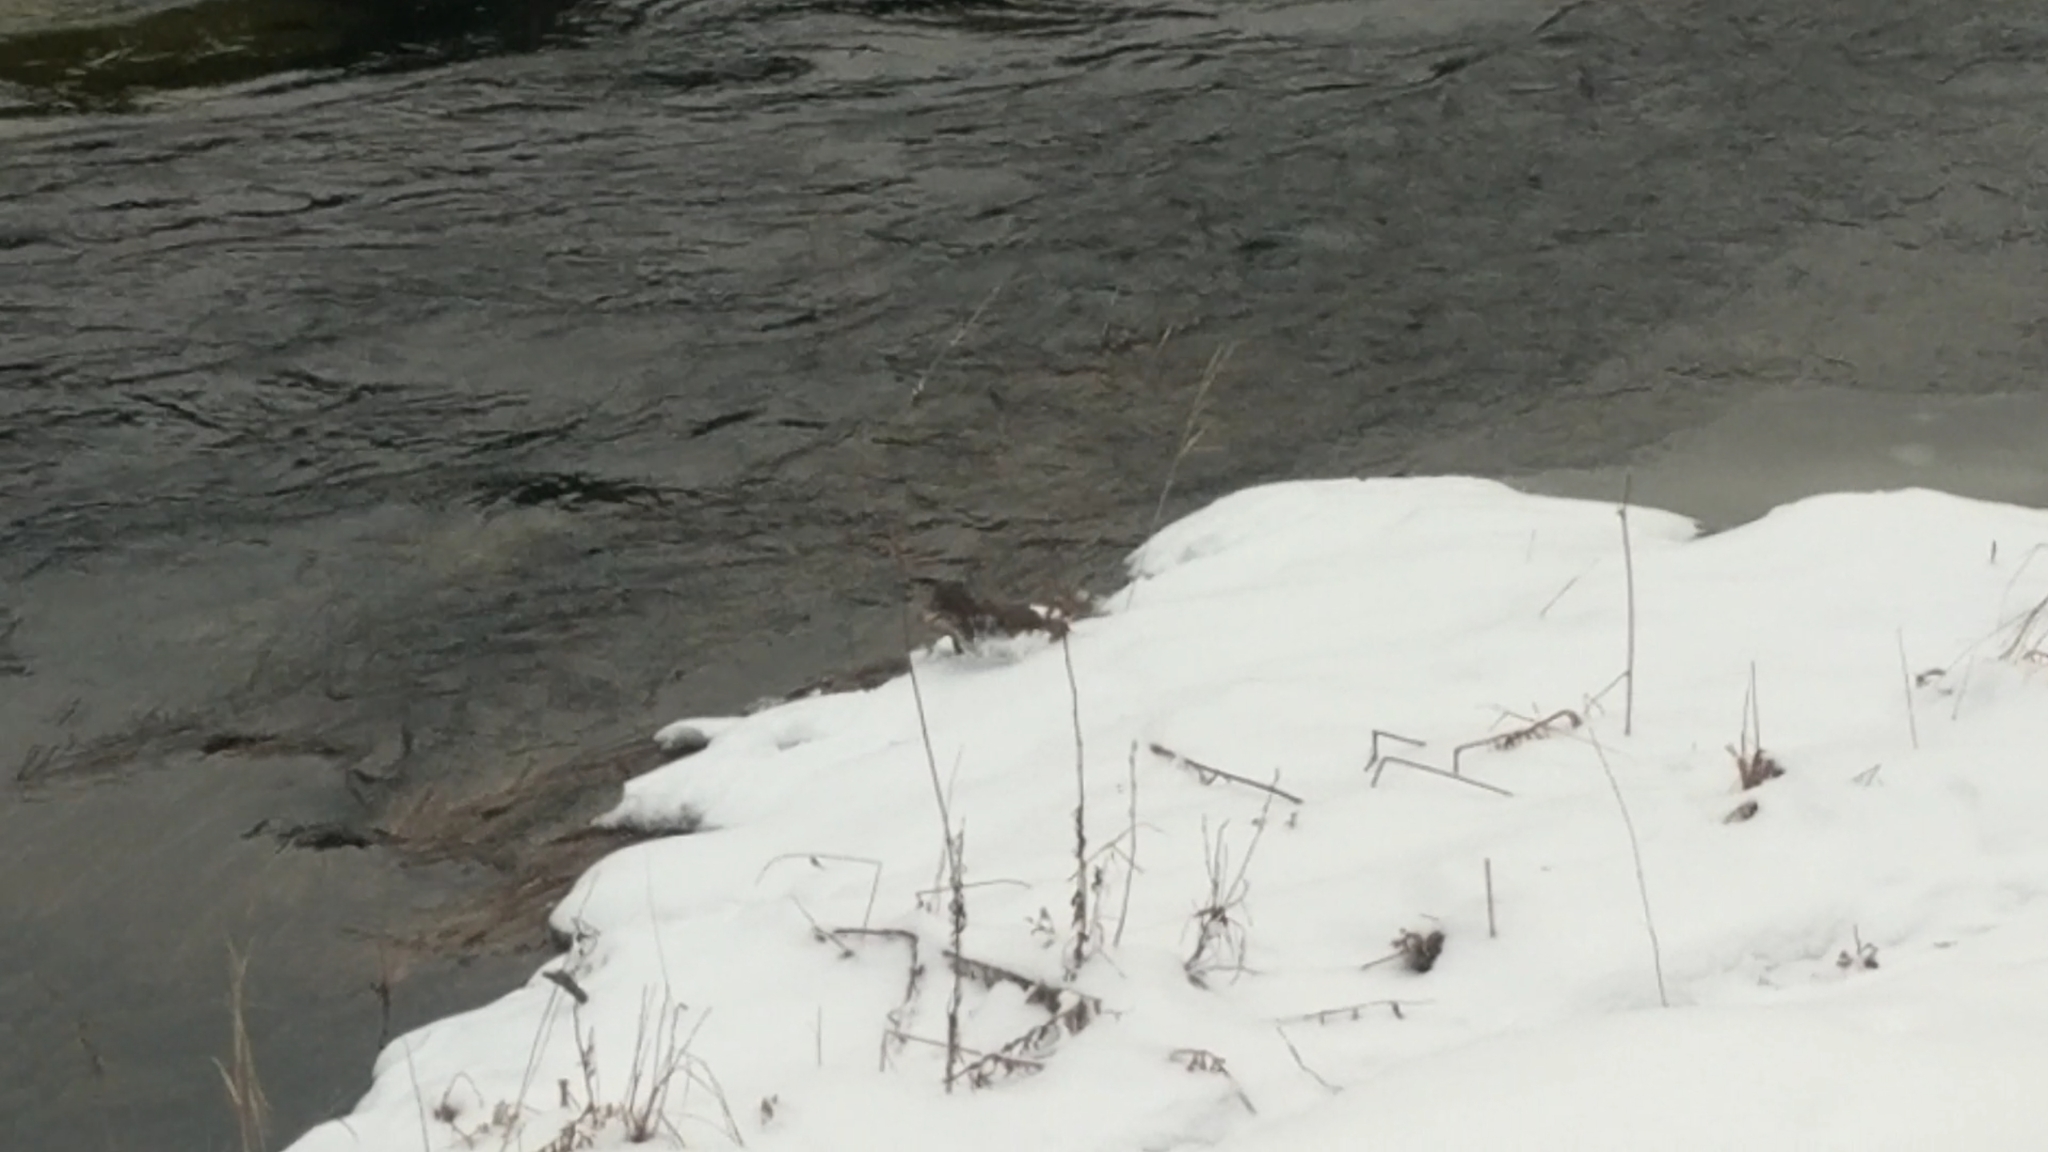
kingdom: Animalia
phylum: Chordata
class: Mammalia
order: Carnivora
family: Mustelidae
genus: Mustela
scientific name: Mustela
